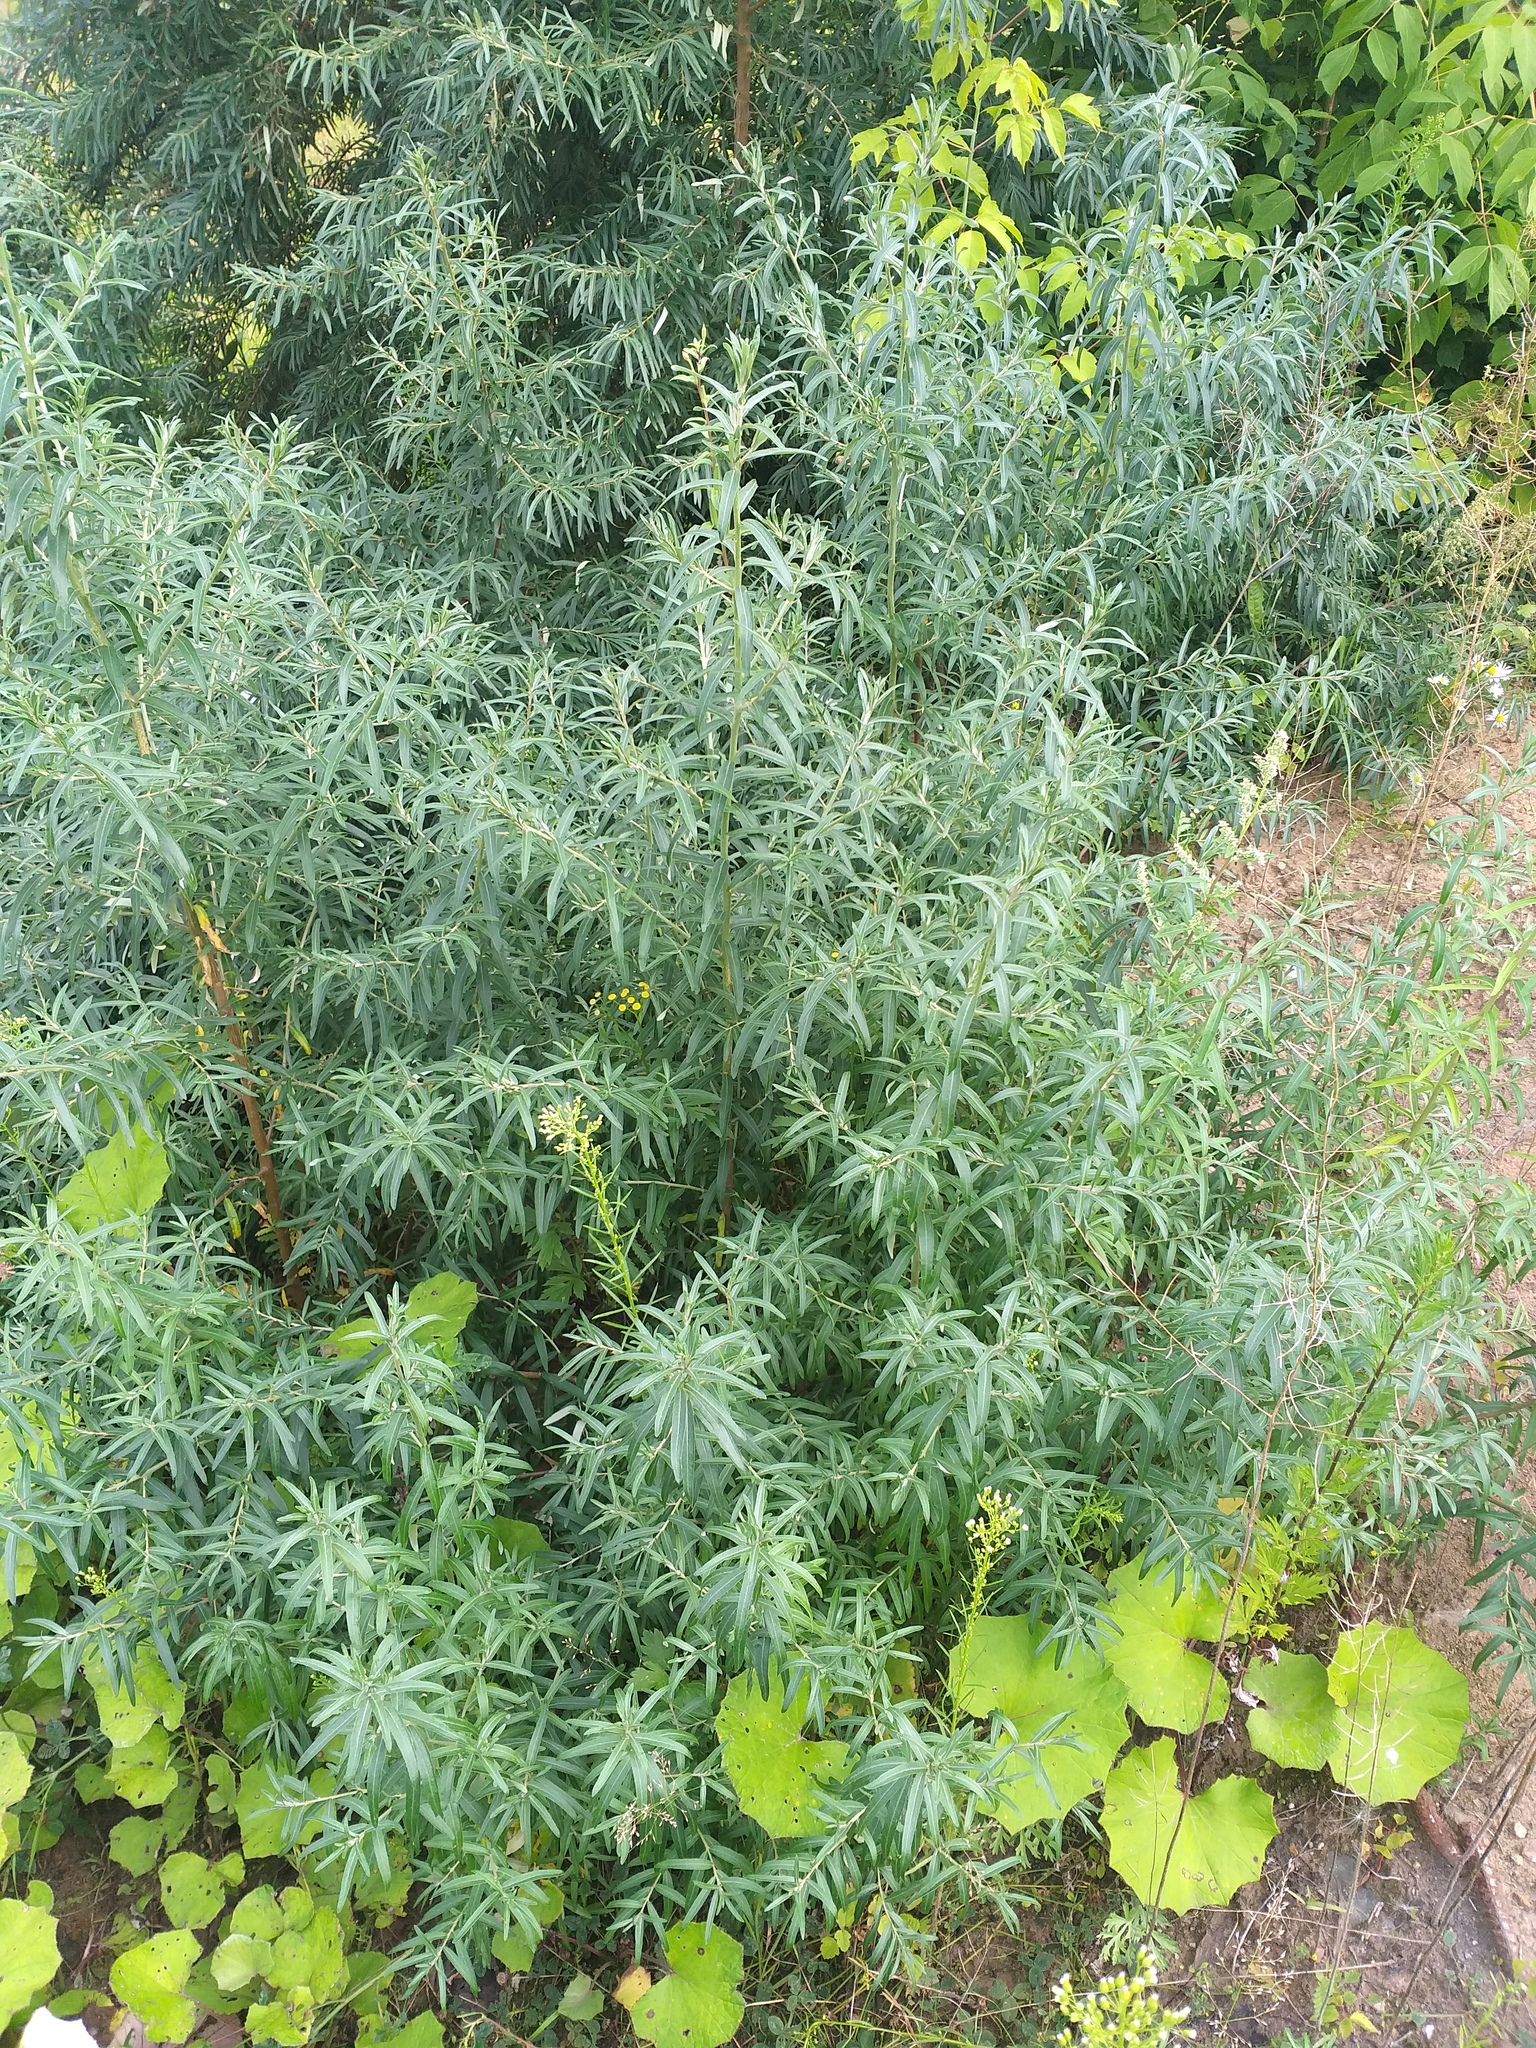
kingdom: Plantae
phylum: Tracheophyta
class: Magnoliopsida
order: Rosales
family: Elaeagnaceae
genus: Hippophae
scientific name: Hippophae rhamnoides
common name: Sea-buckthorn
